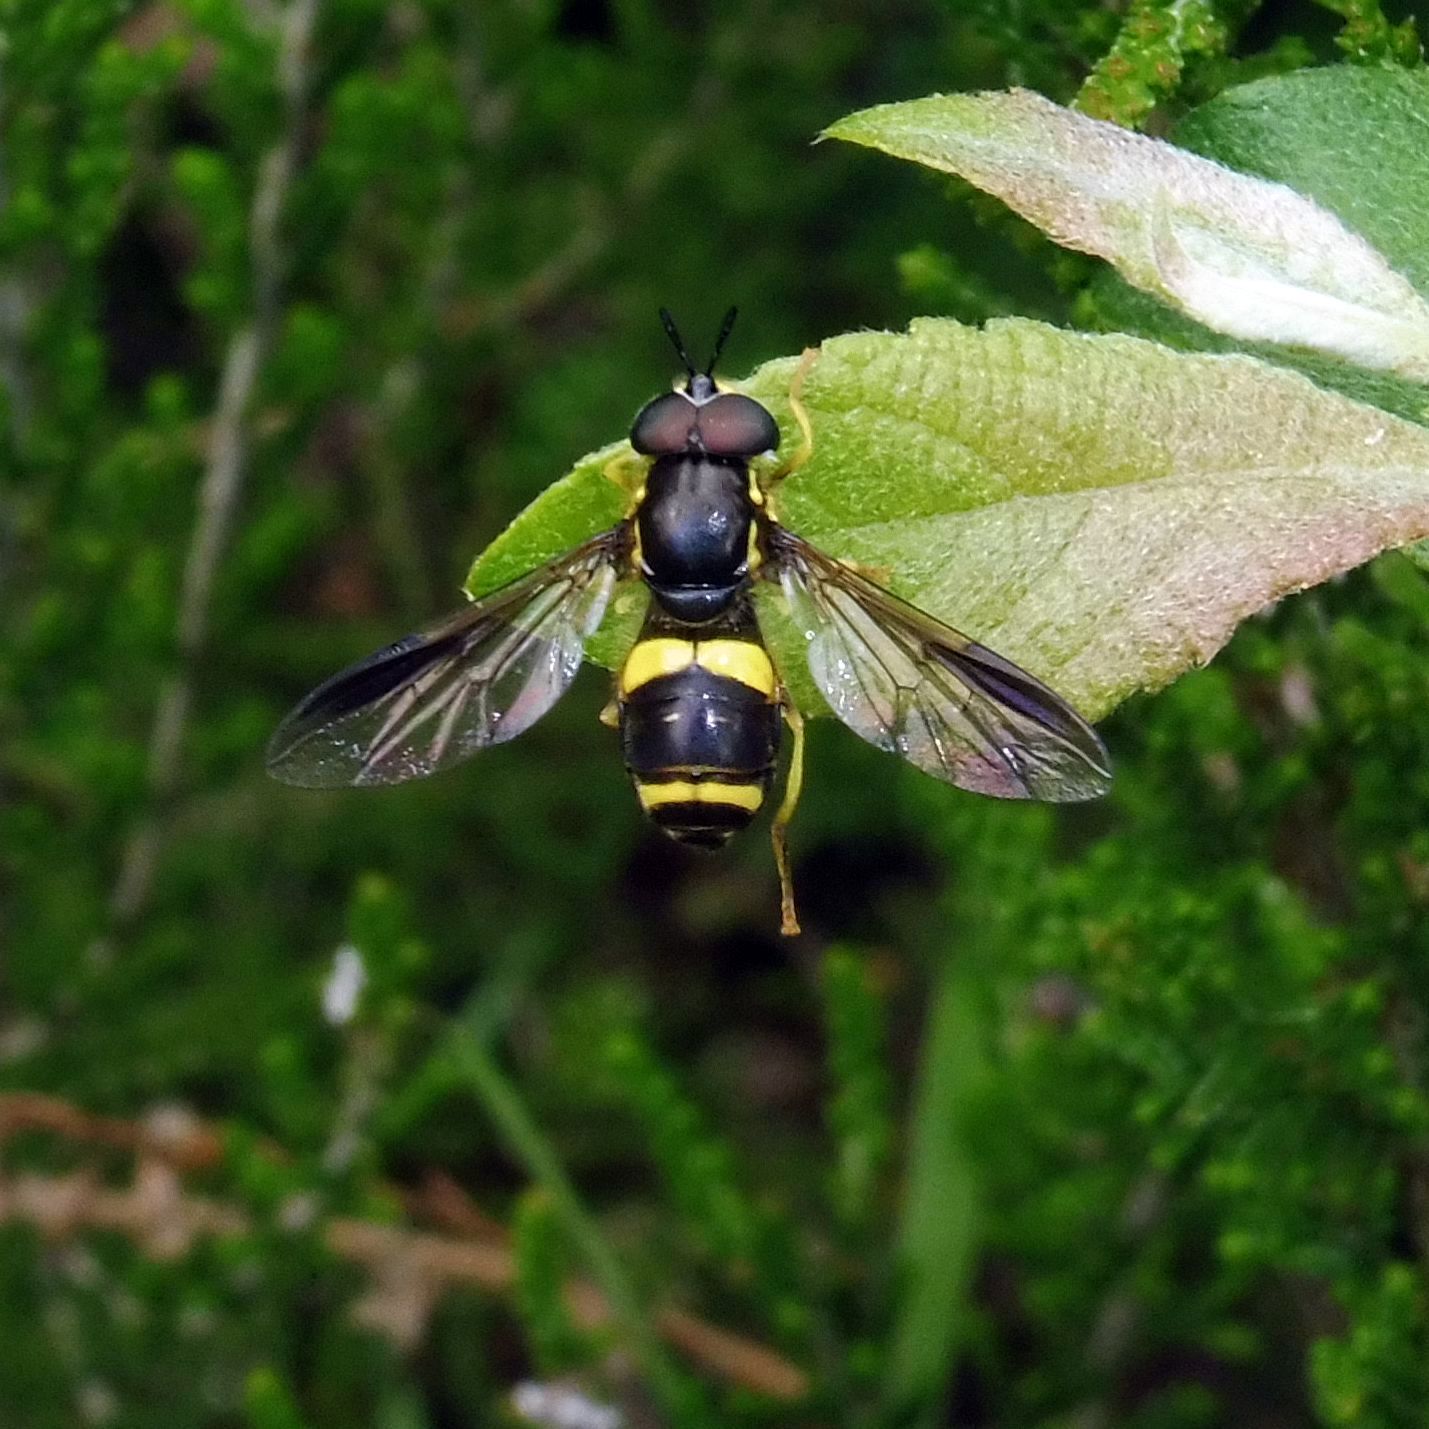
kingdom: Animalia
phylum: Arthropoda
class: Insecta
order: Diptera
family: Syrphidae
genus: Chrysotoxum
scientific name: Chrysotoxum bicincta
